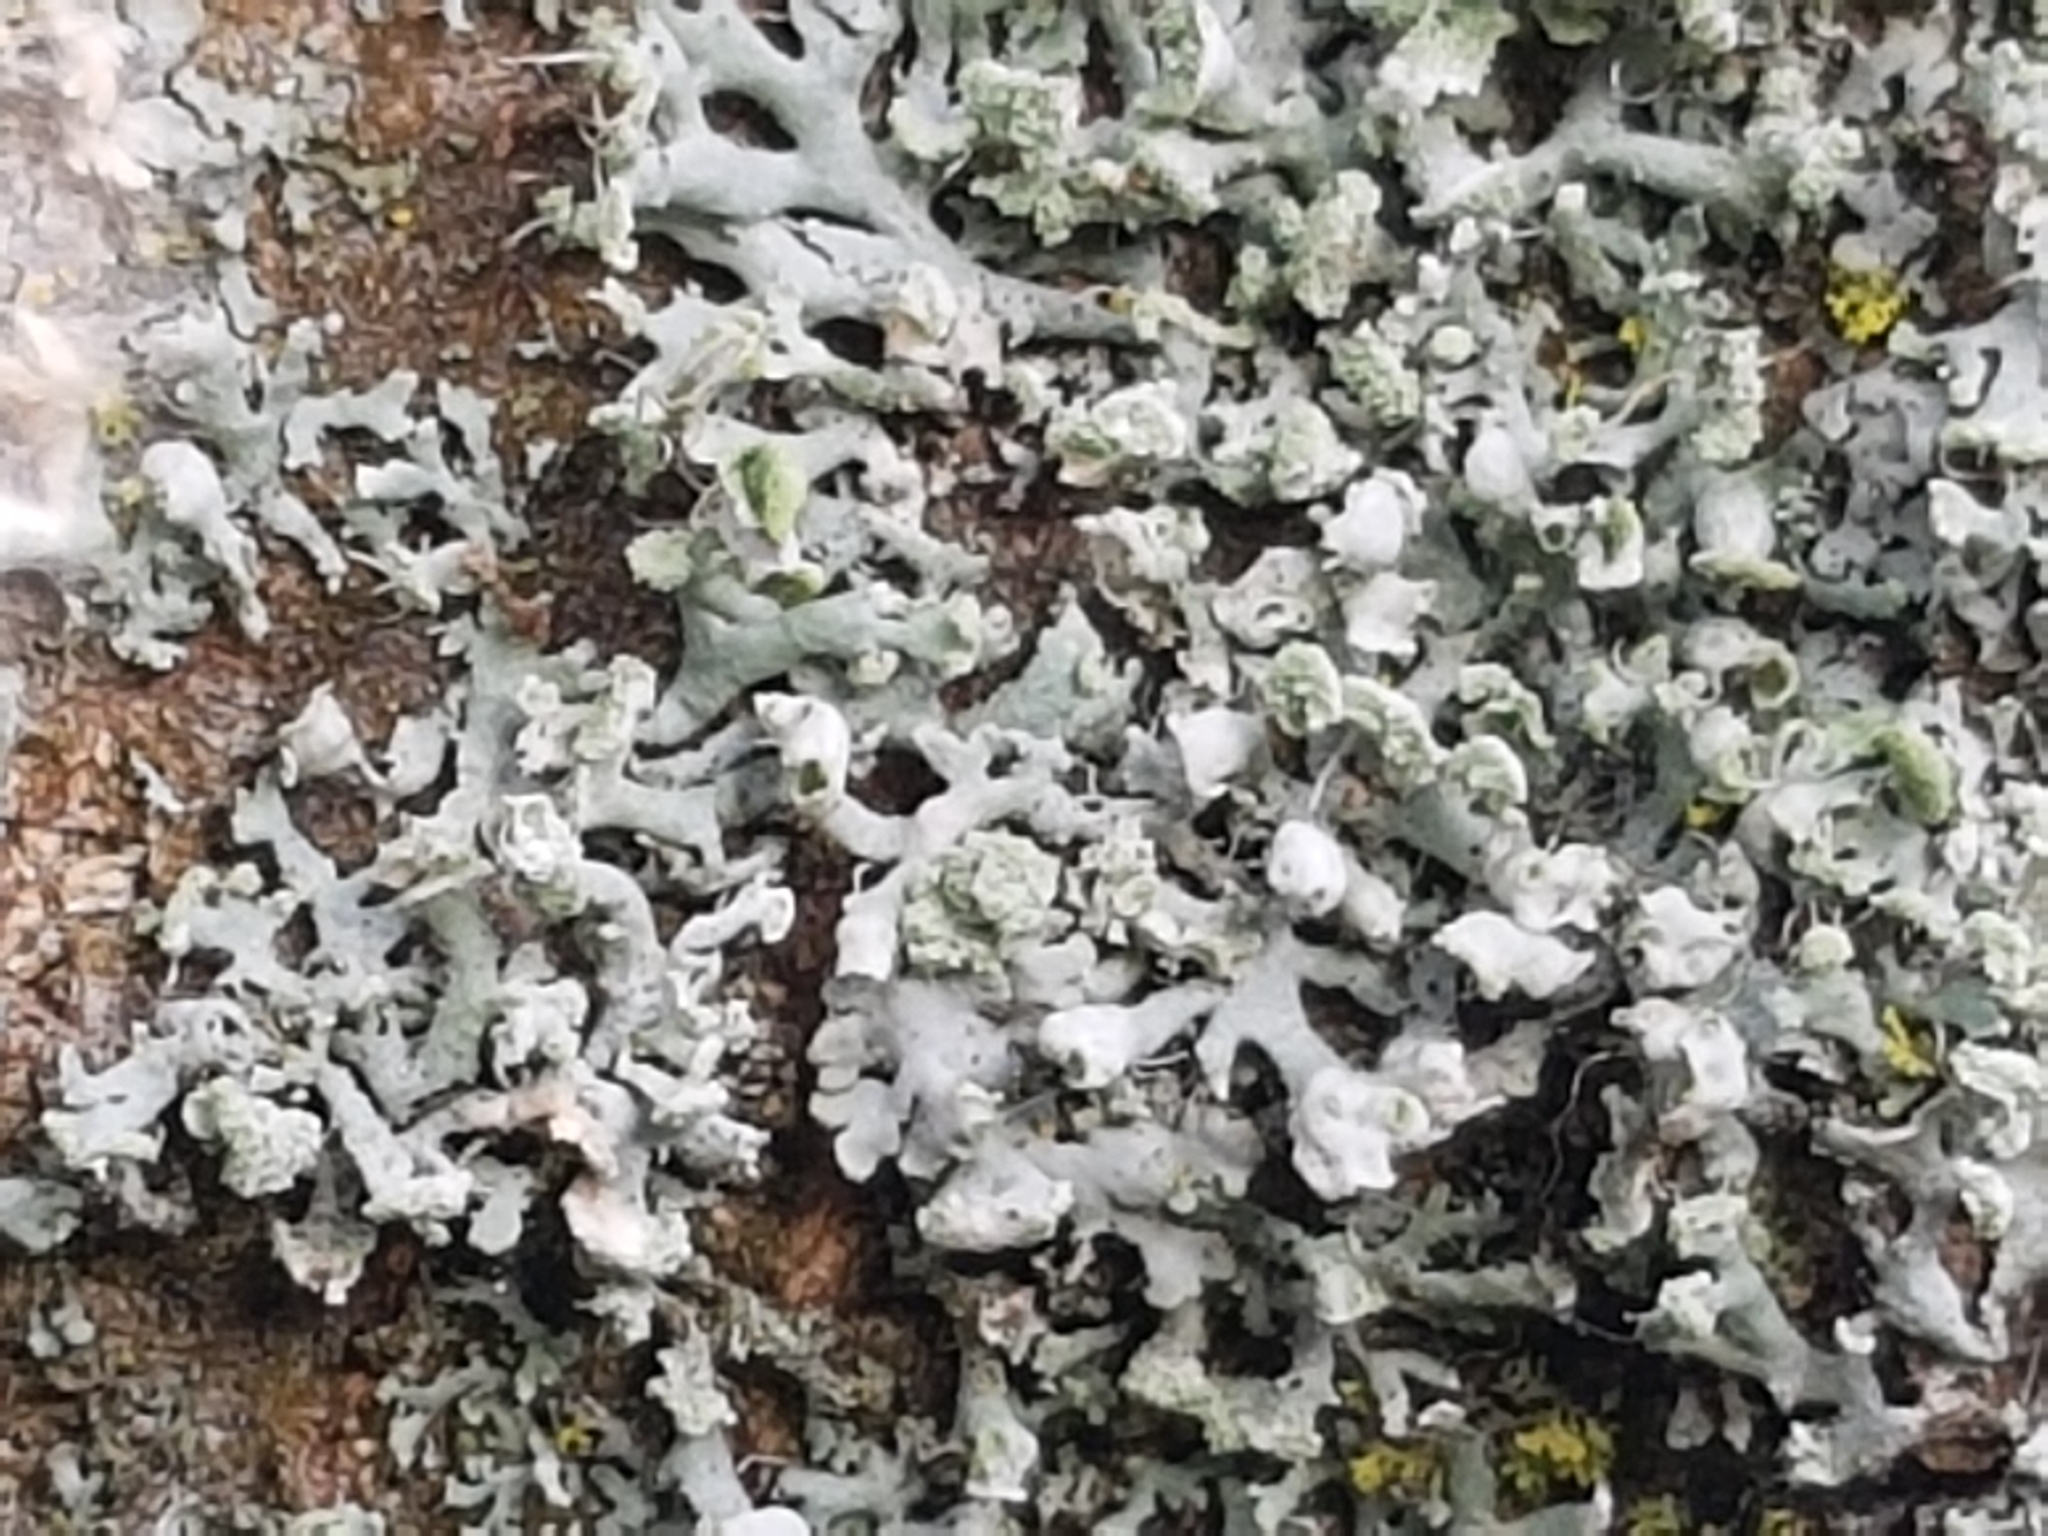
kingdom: Fungi
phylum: Ascomycota
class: Lecanoromycetes
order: Caliciales
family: Physciaceae
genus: Physcia
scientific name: Physcia adscendens
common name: Hooded rosette lichen
